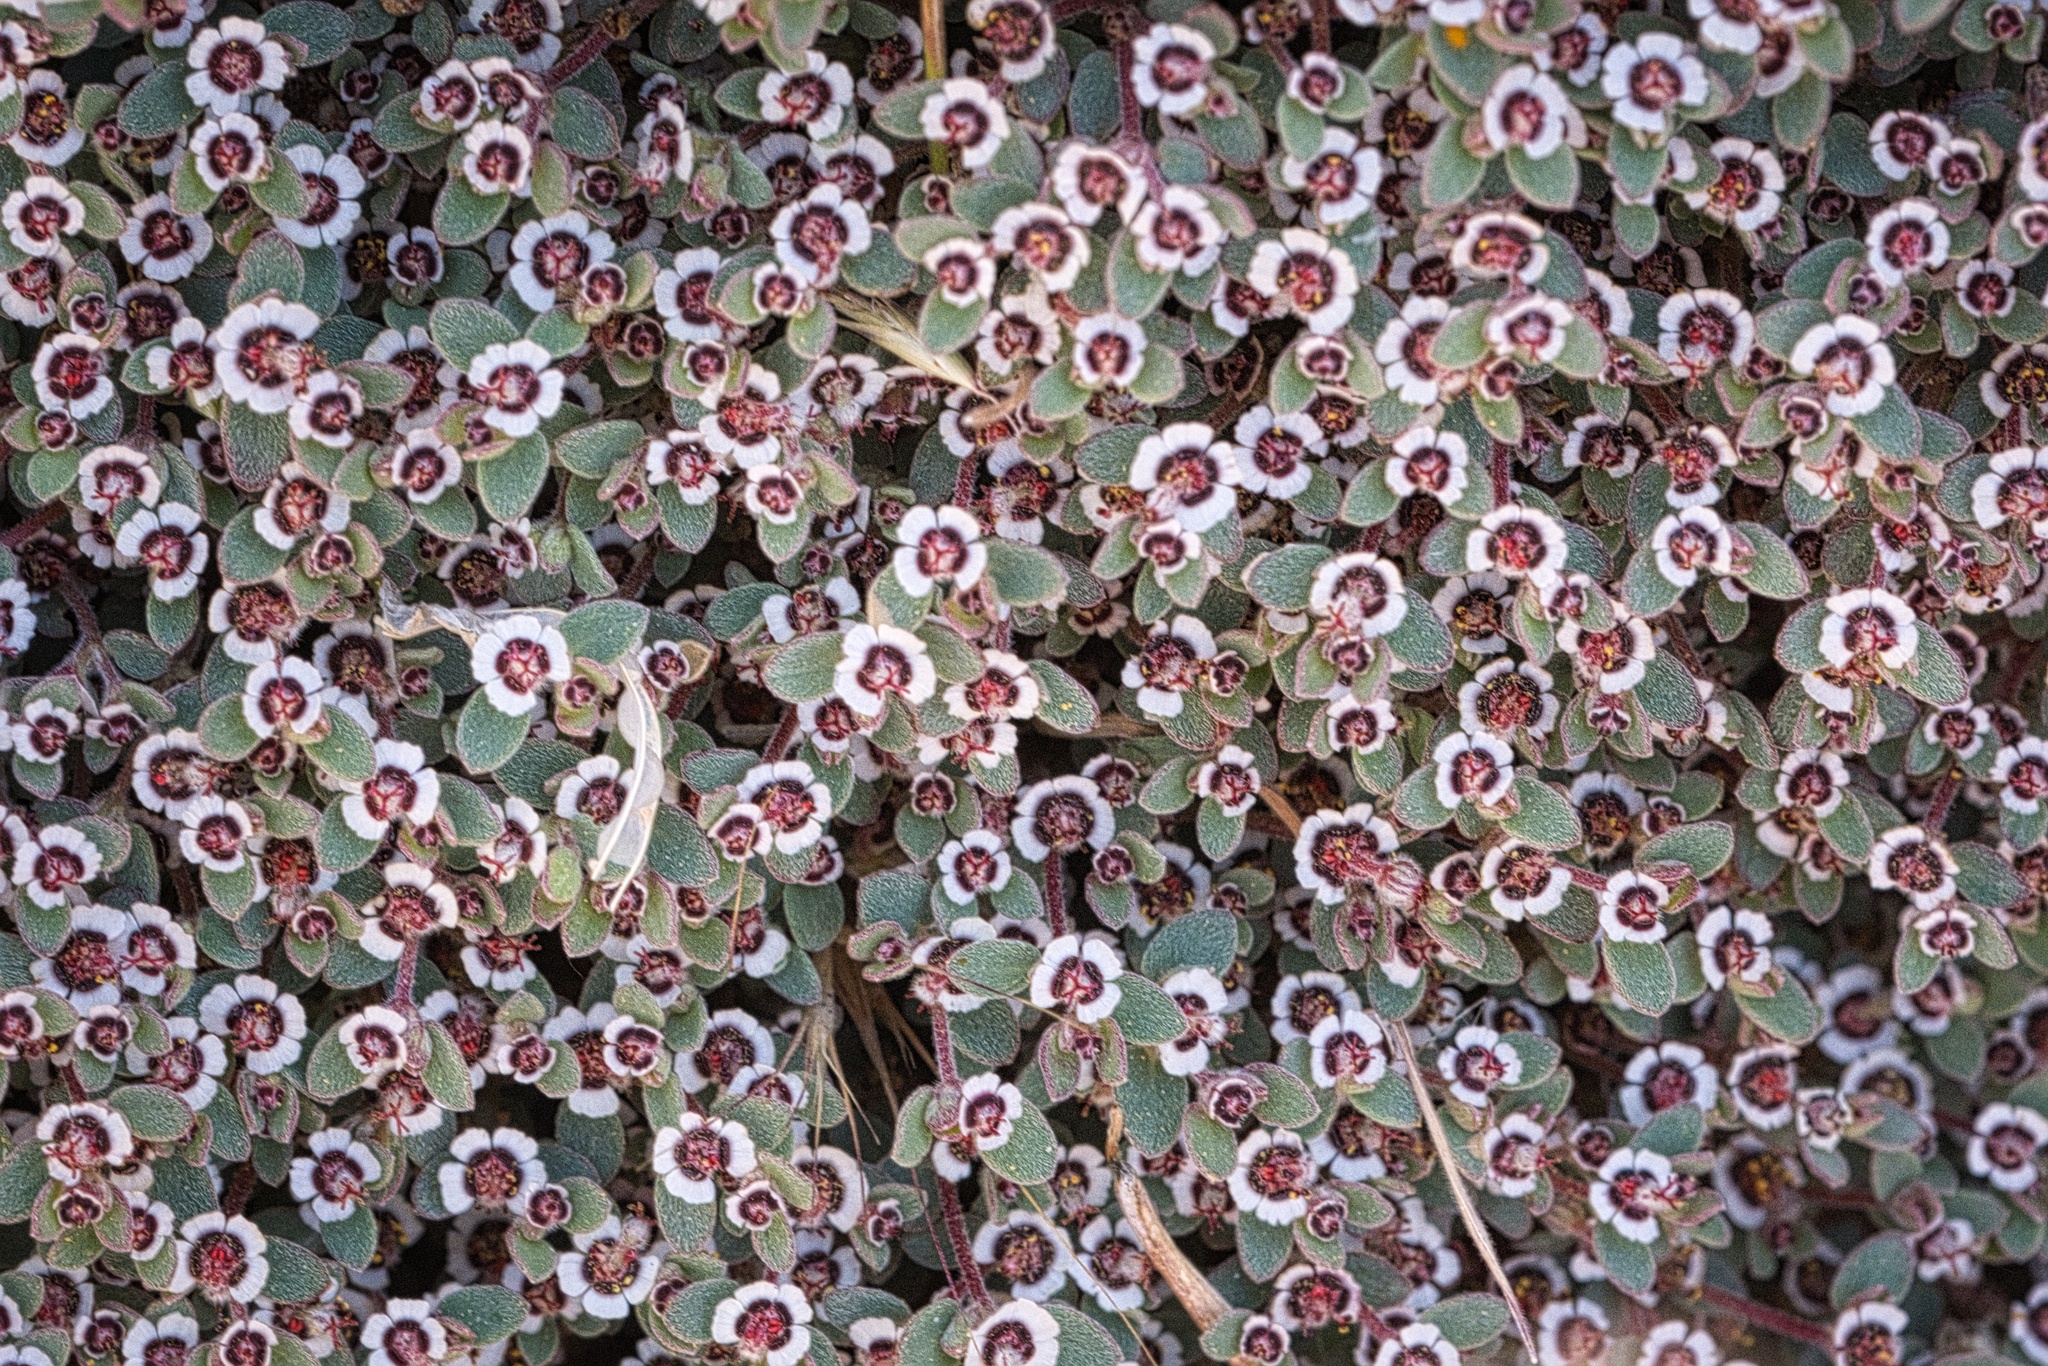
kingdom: Plantae
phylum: Tracheophyta
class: Magnoliopsida
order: Malpighiales
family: Euphorbiaceae
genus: Euphorbia
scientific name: Euphorbia melanadenia
